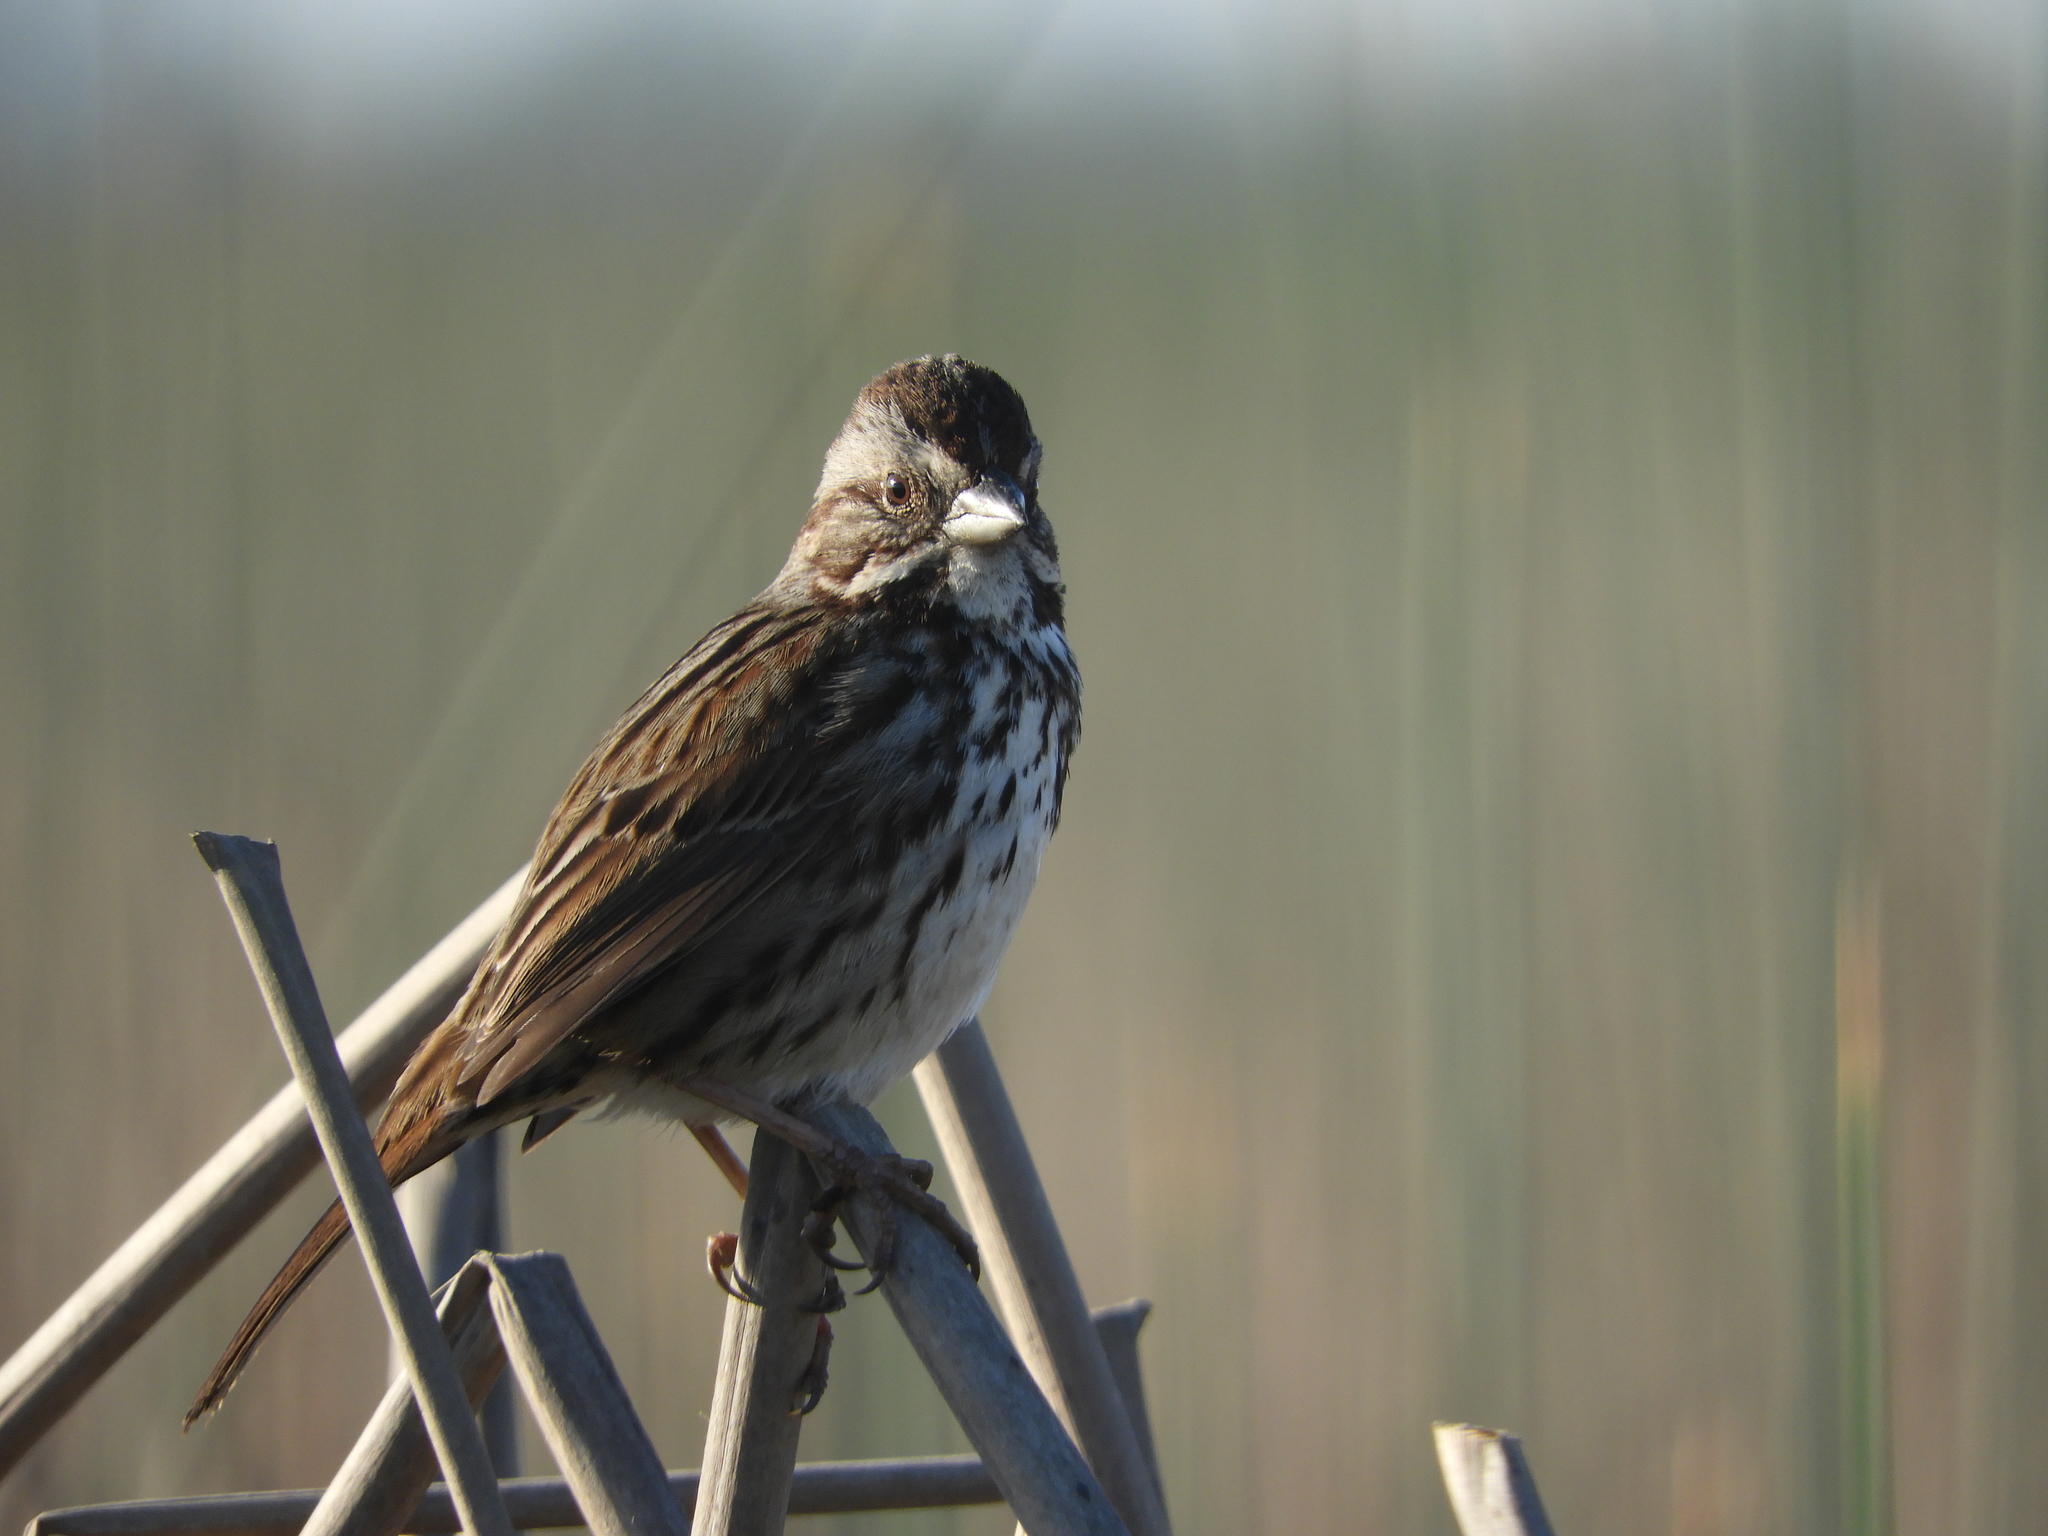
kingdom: Animalia
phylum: Chordata
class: Aves
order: Passeriformes
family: Passerellidae
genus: Melospiza
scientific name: Melospiza melodia
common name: Song sparrow
